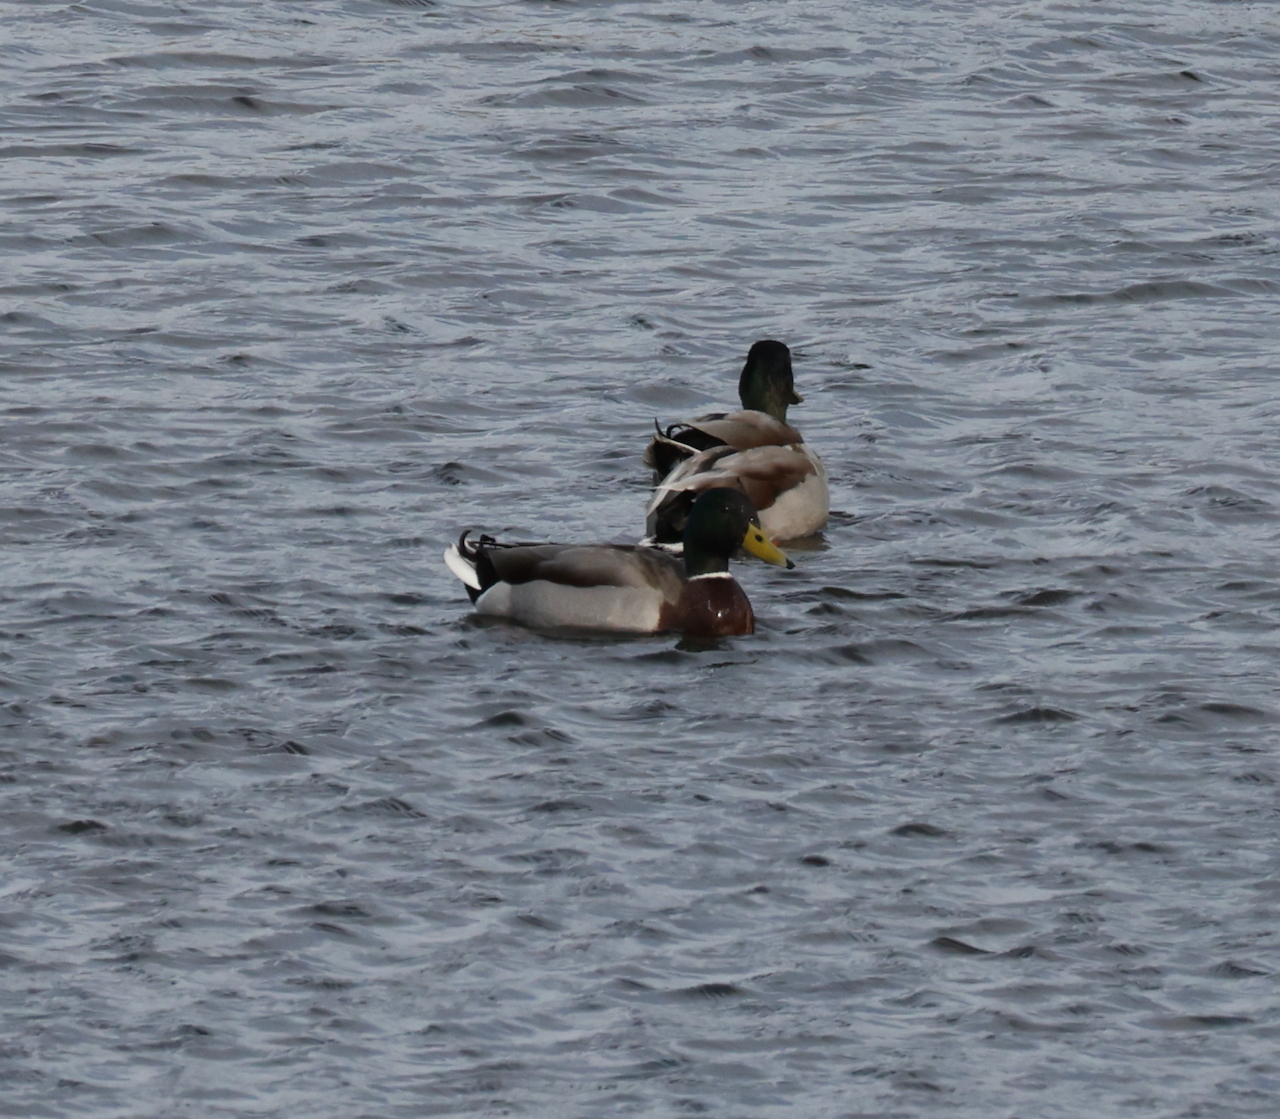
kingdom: Animalia
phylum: Chordata
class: Aves
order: Anseriformes
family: Anatidae
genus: Anas
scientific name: Anas platyrhynchos
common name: Mallard
